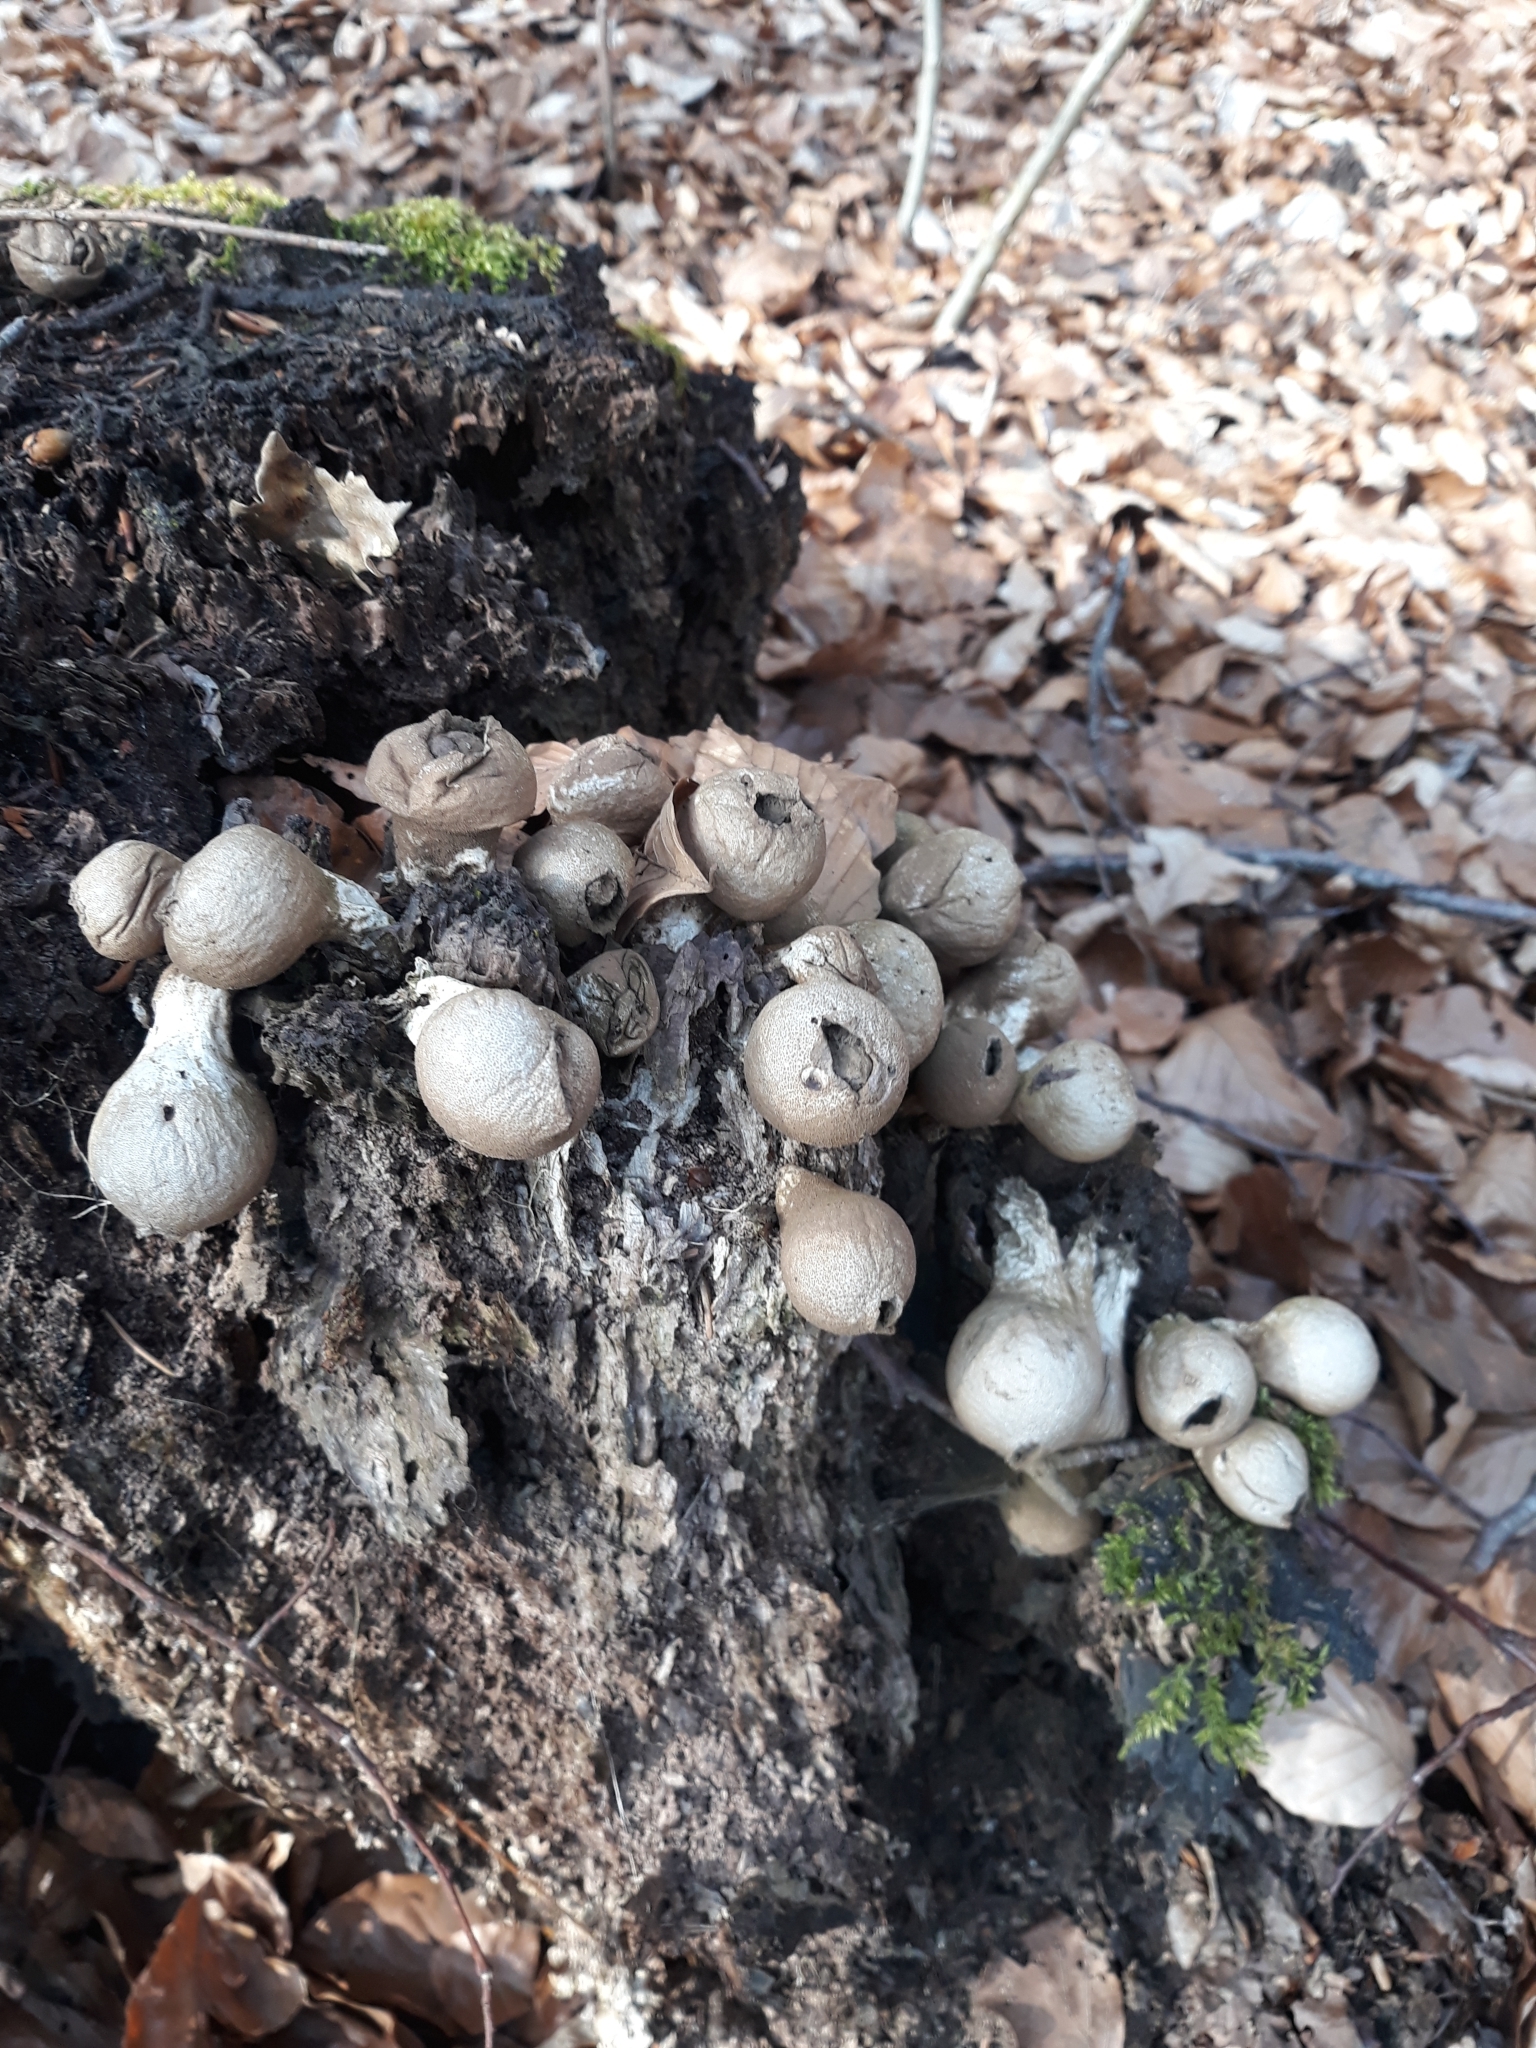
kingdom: Fungi
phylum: Basidiomycota
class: Agaricomycetes
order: Agaricales
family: Lycoperdaceae
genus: Apioperdon
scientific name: Apioperdon pyriforme
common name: Pear-shaped puffball
